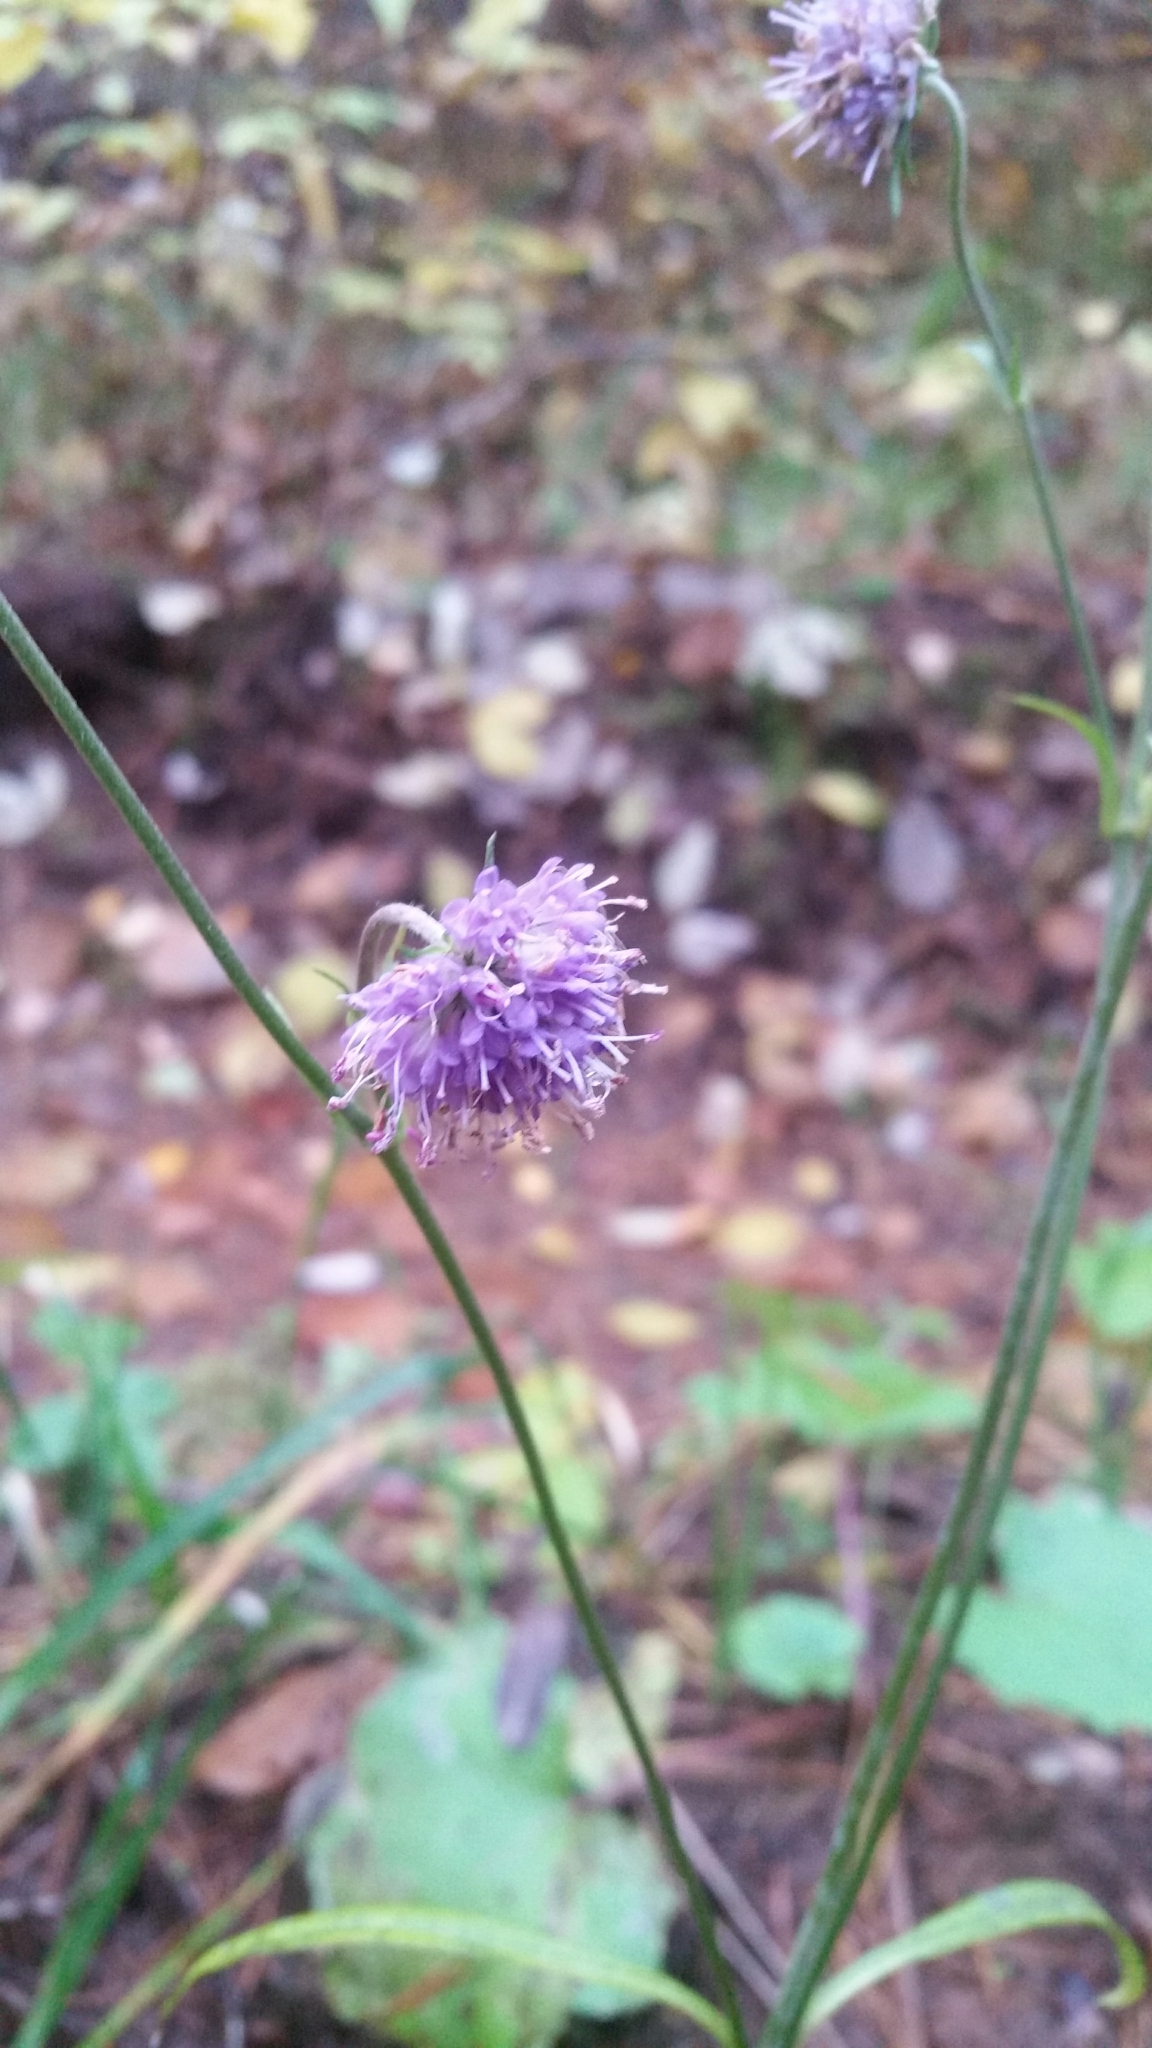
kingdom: Plantae
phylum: Tracheophyta
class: Magnoliopsida
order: Dipsacales
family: Caprifoliaceae
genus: Succisa
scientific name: Succisa pratensis
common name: Devil's-bit
